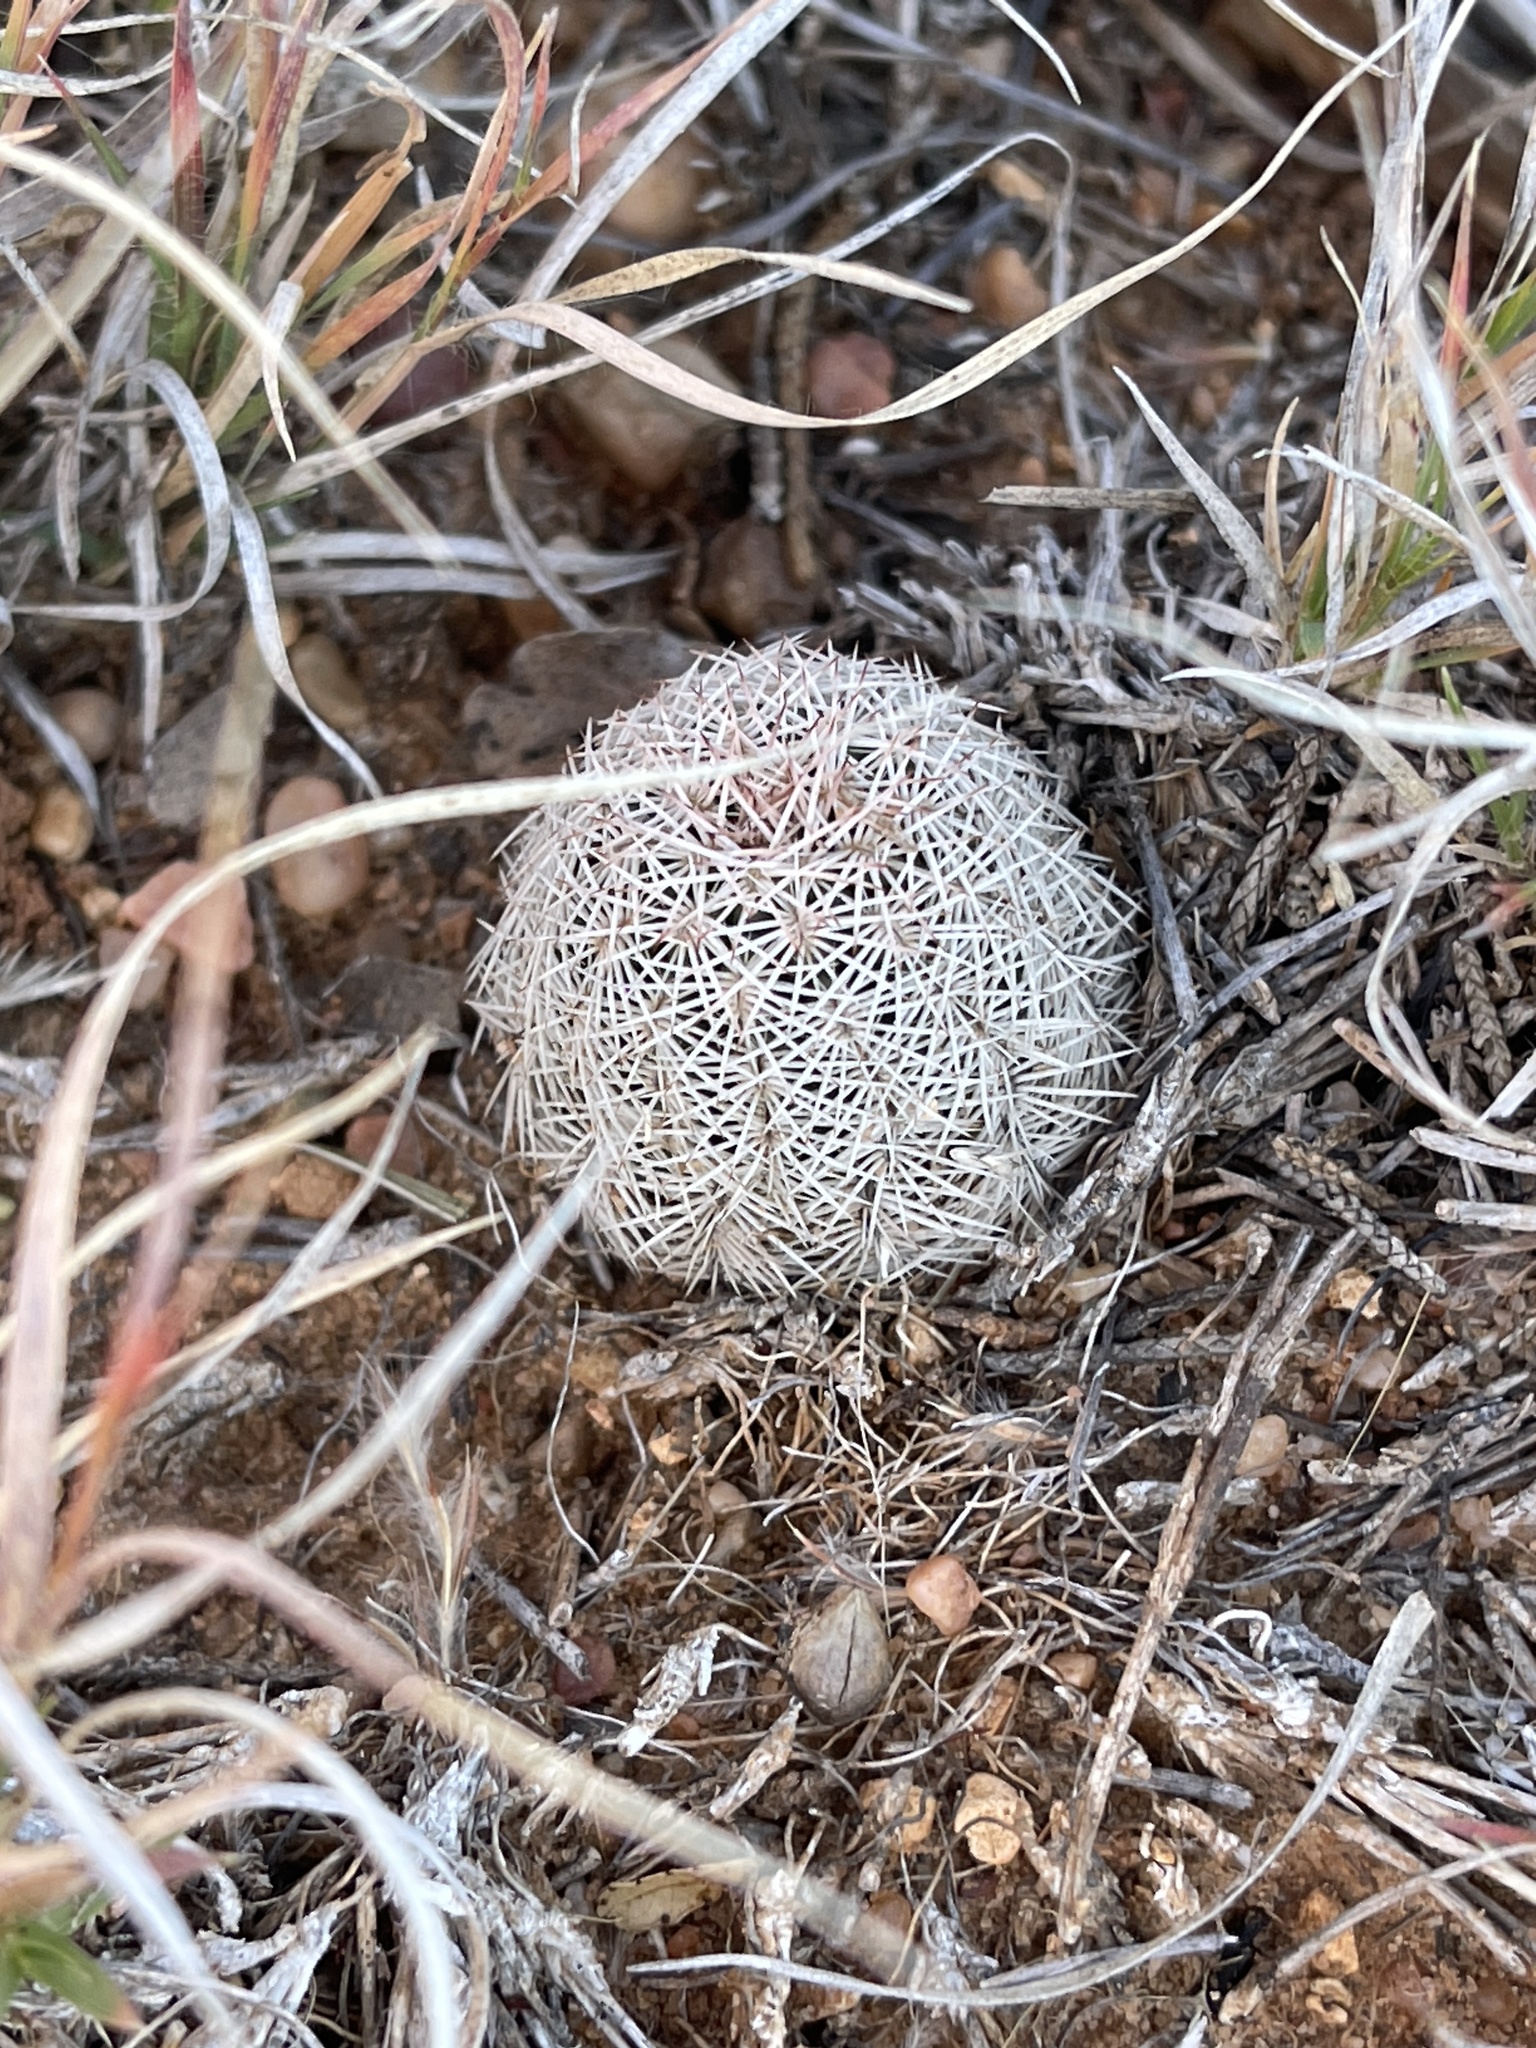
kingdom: Plantae
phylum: Tracheophyta
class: Magnoliopsida
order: Caryophyllales
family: Cactaceae
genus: Echinocereus
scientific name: Echinocereus reichenbachii
